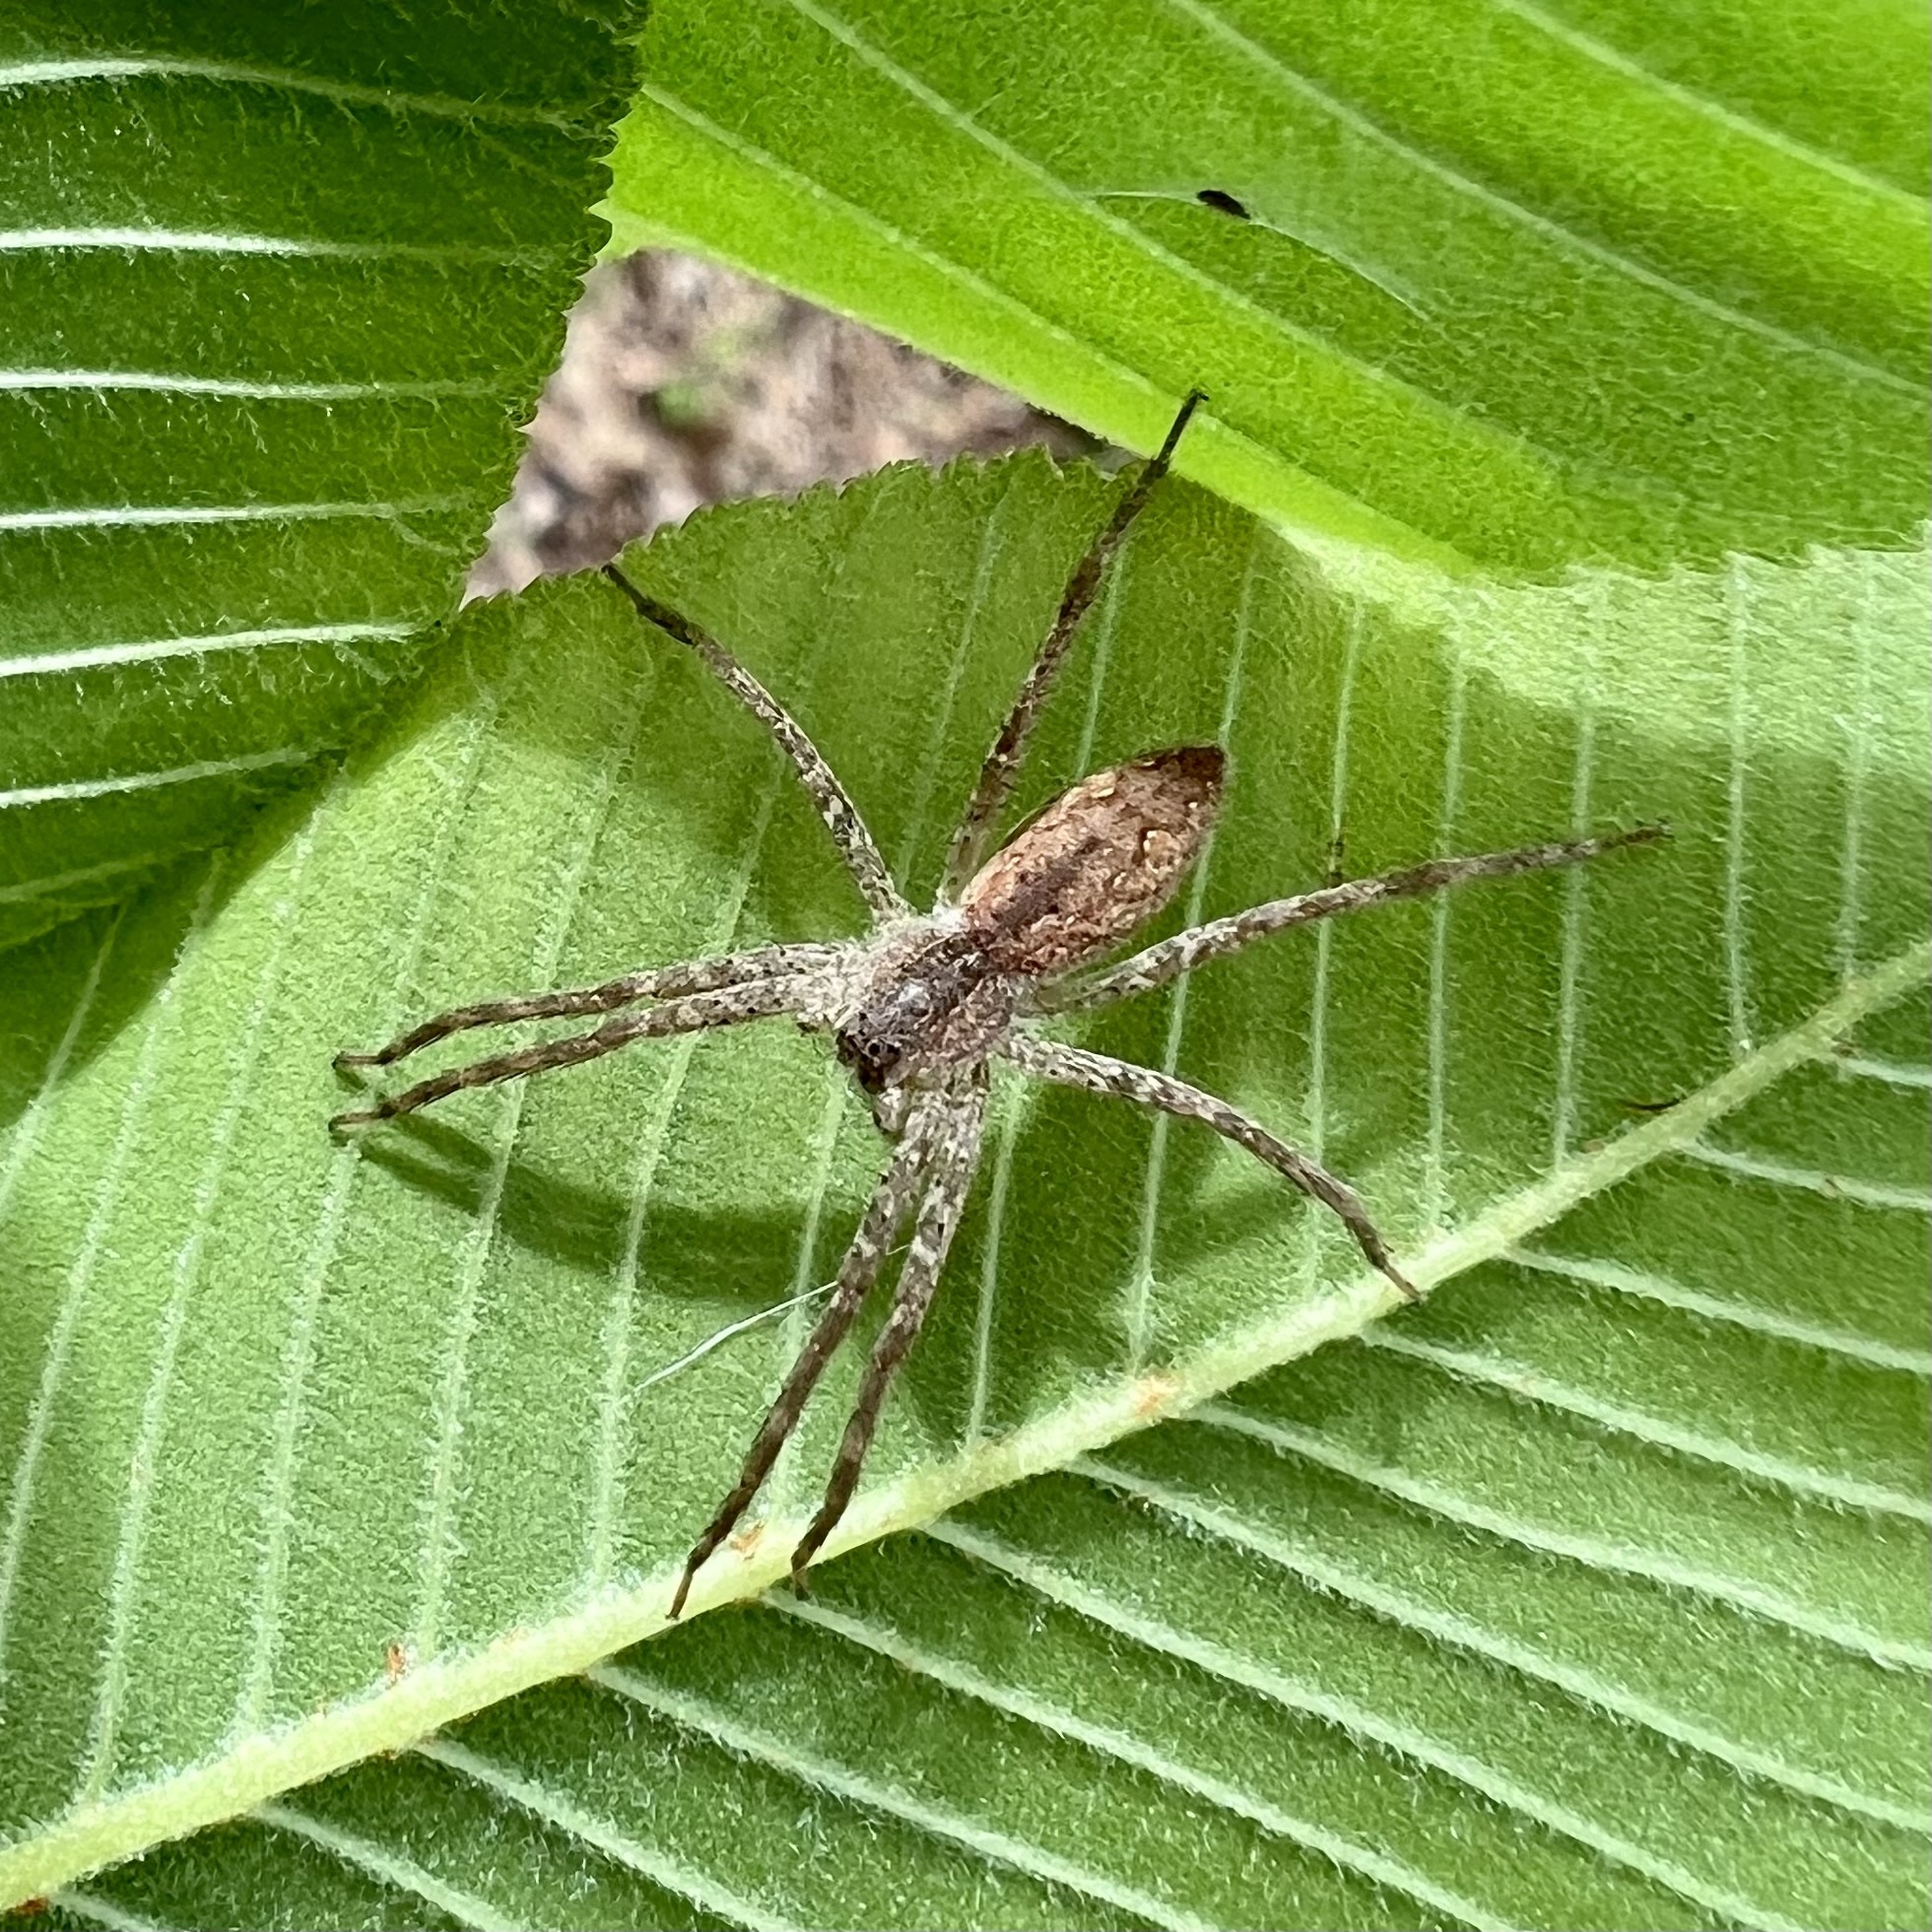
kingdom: Animalia
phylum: Arthropoda
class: Arachnida
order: Araneae
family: Pisauridae
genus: Pisaurina
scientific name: Pisaurina mira
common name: American nursery web spider
